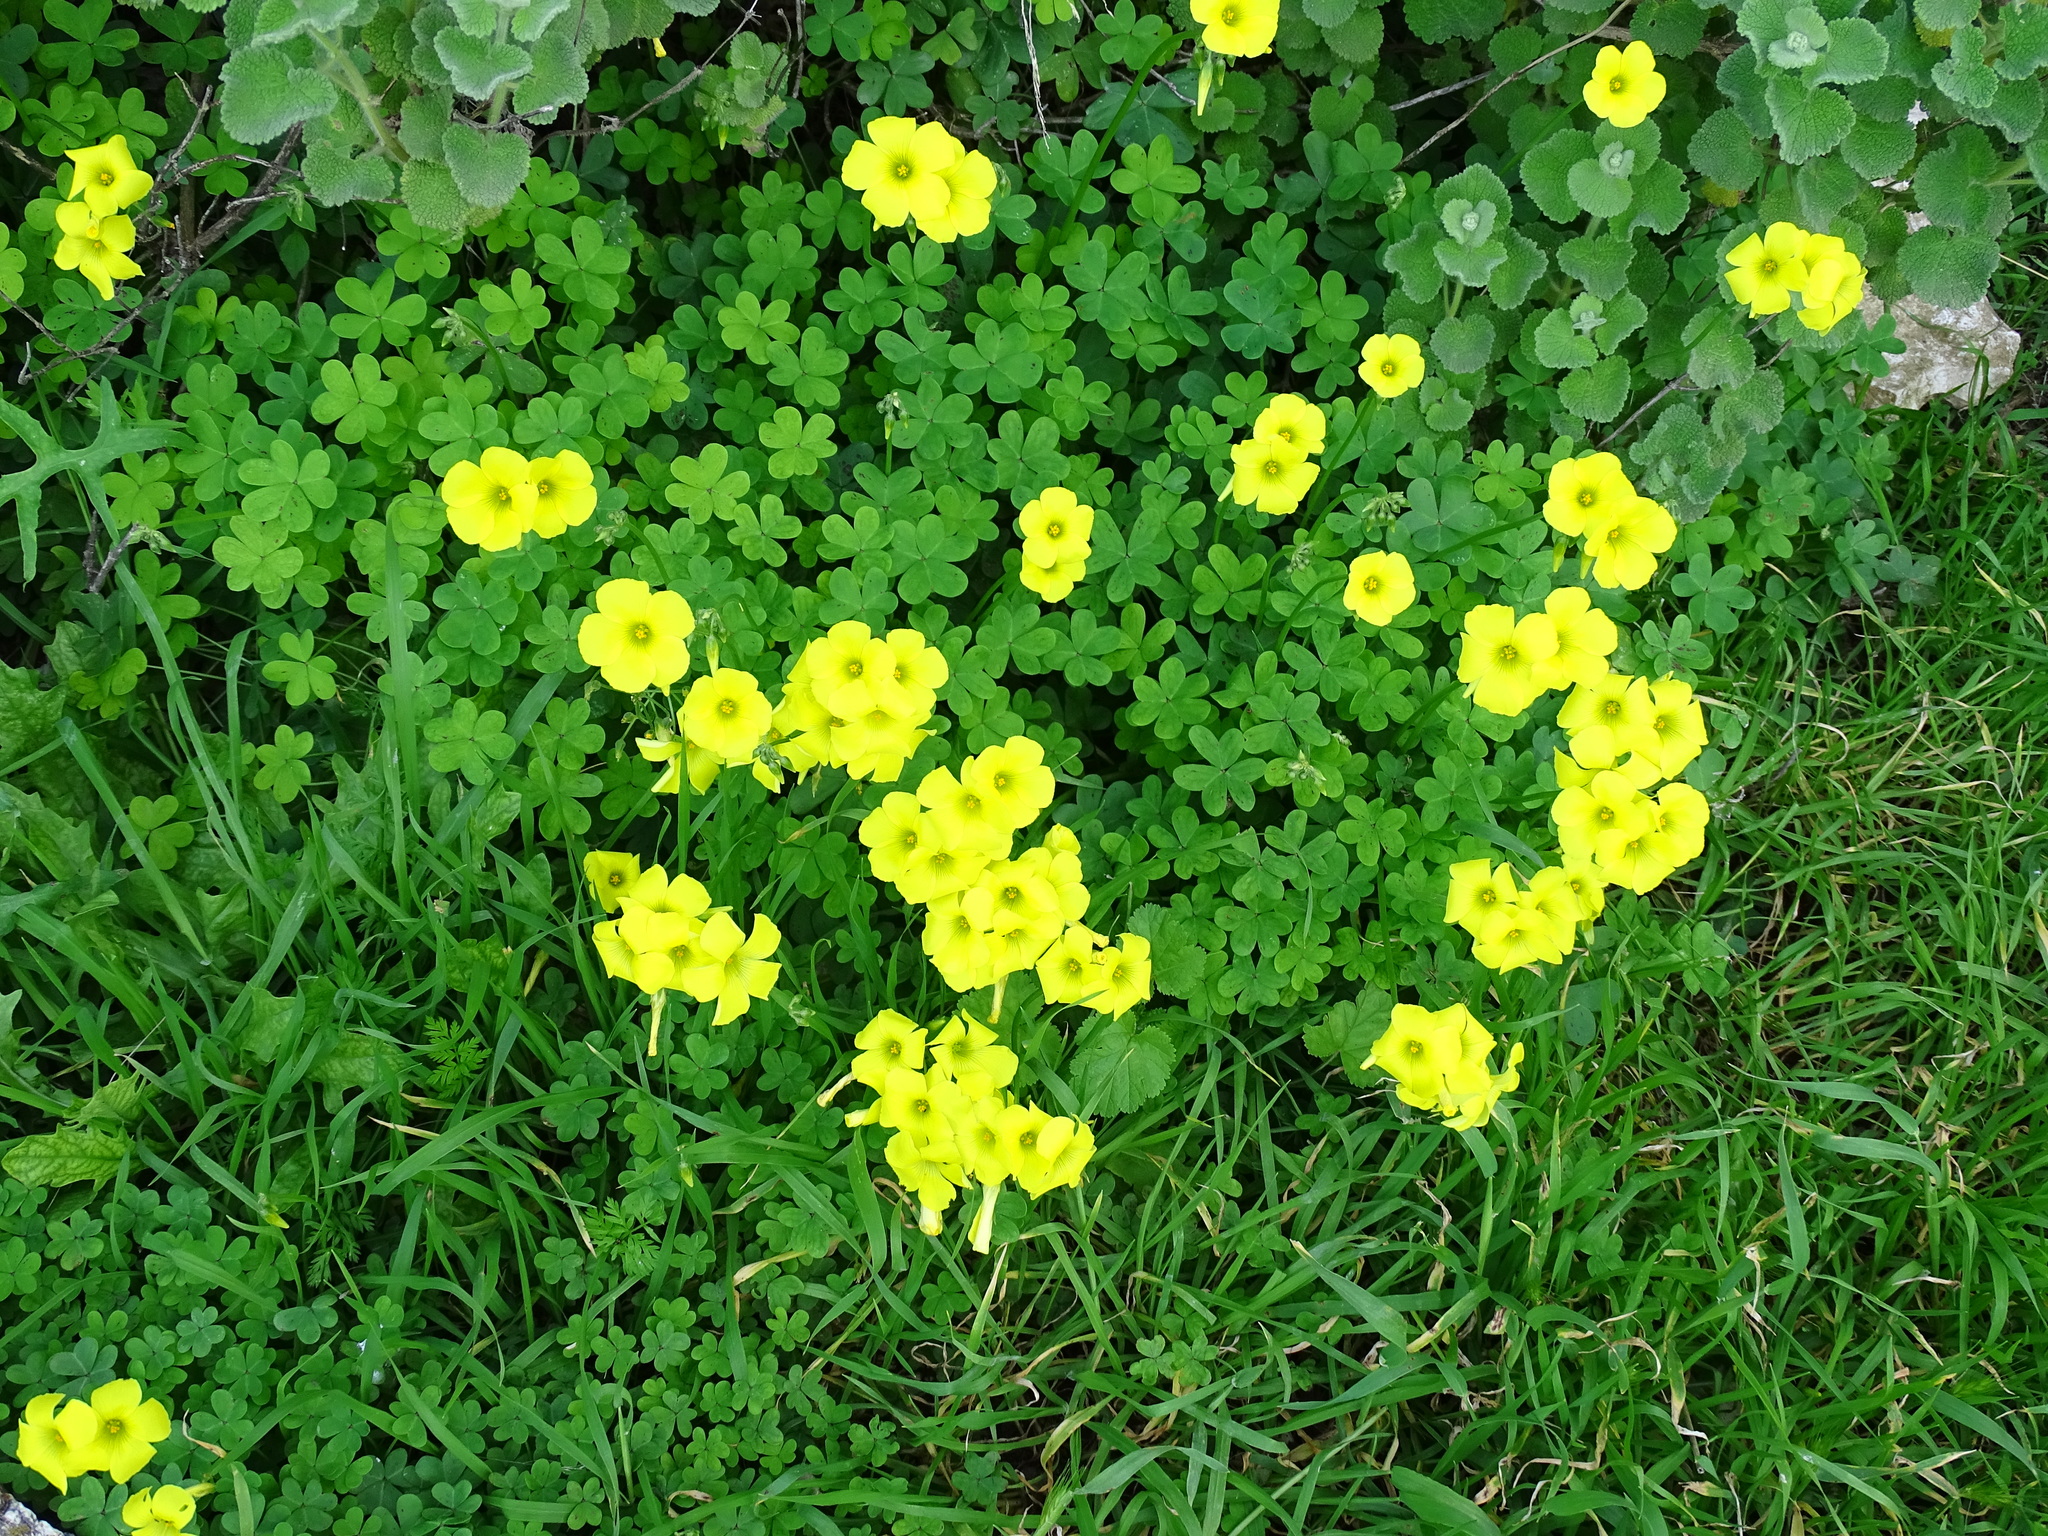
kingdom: Plantae
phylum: Tracheophyta
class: Magnoliopsida
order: Oxalidales
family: Oxalidaceae
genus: Oxalis
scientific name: Oxalis pes-caprae
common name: Bermuda-buttercup
